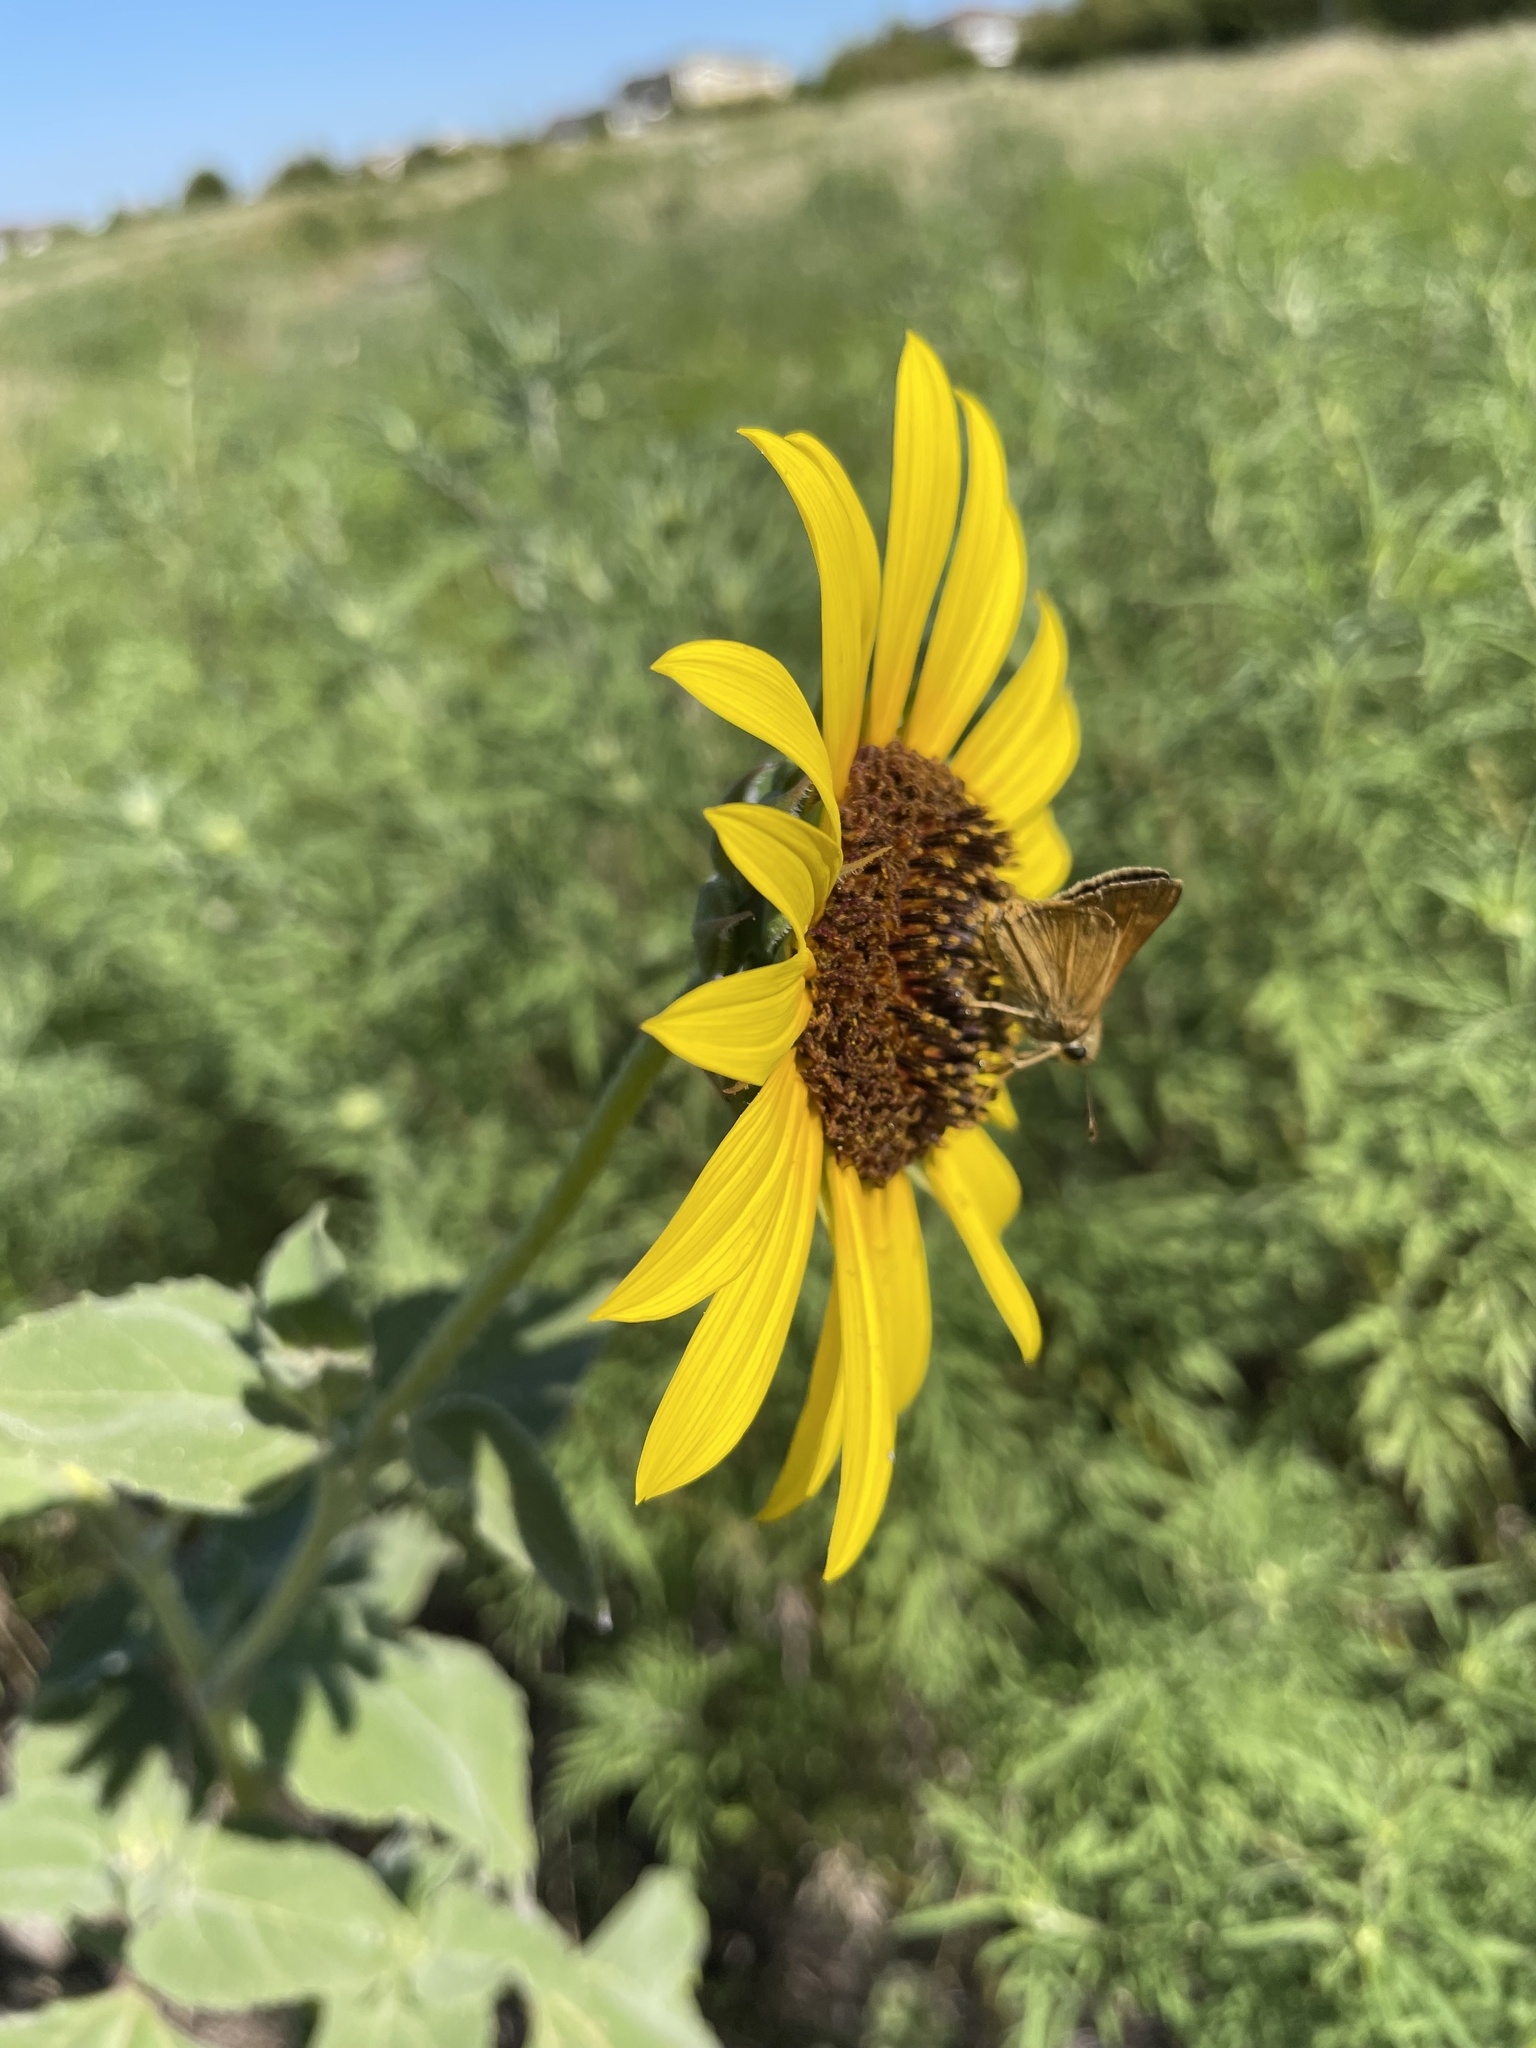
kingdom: Animalia
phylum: Arthropoda
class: Insecta
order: Lepidoptera
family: Hesperiidae
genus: Atalopedes
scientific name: Atalopedes
